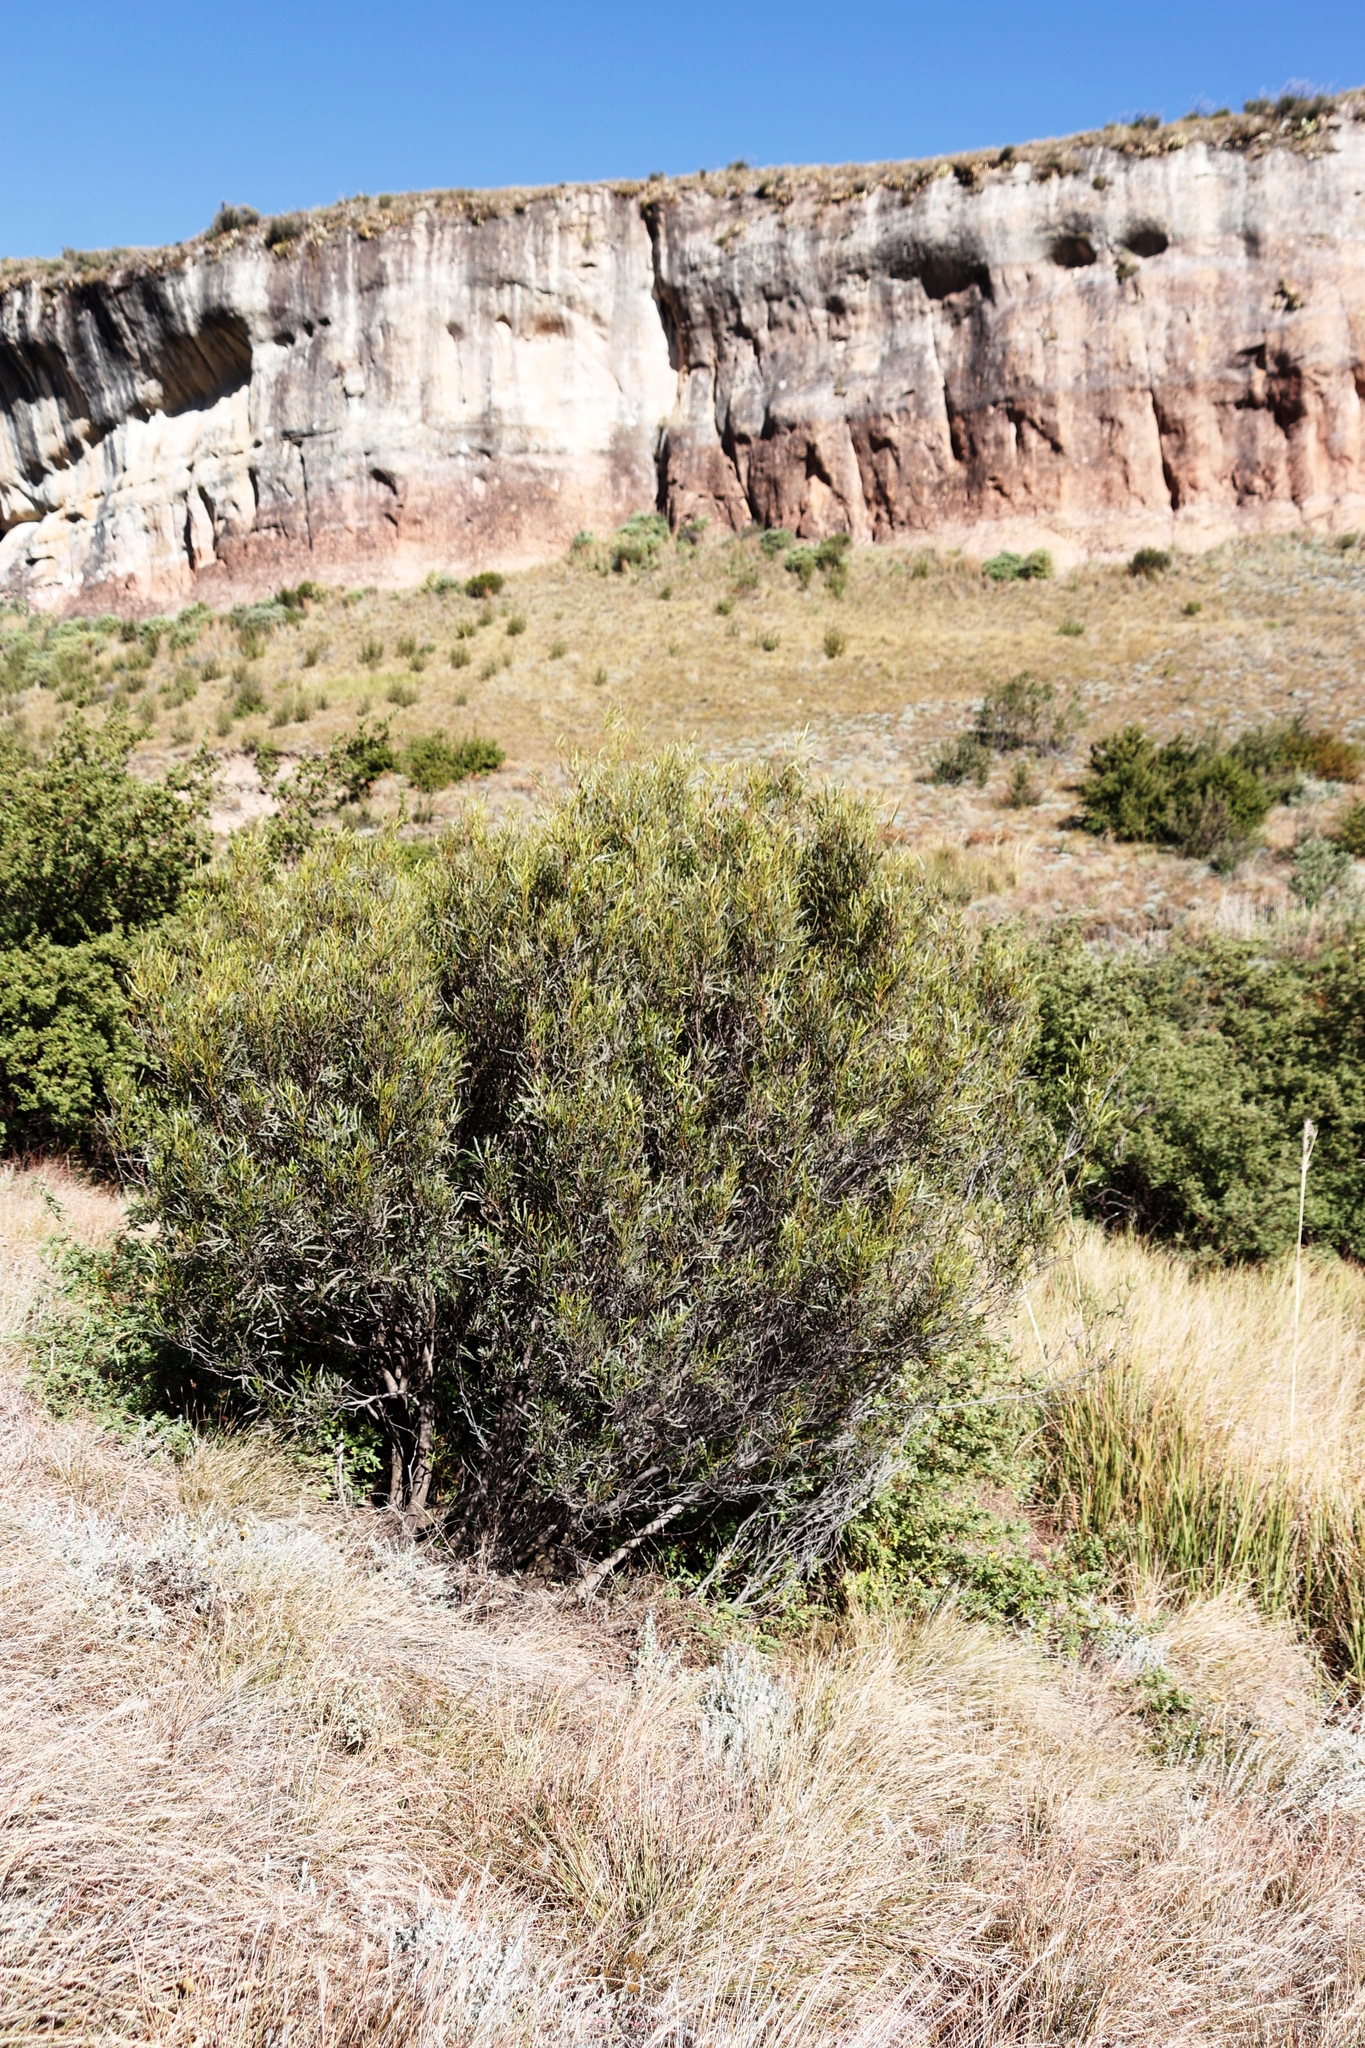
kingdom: Plantae
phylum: Tracheophyta
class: Magnoliopsida
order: Sapindales
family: Anacardiaceae
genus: Searsia
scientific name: Searsia erosa
